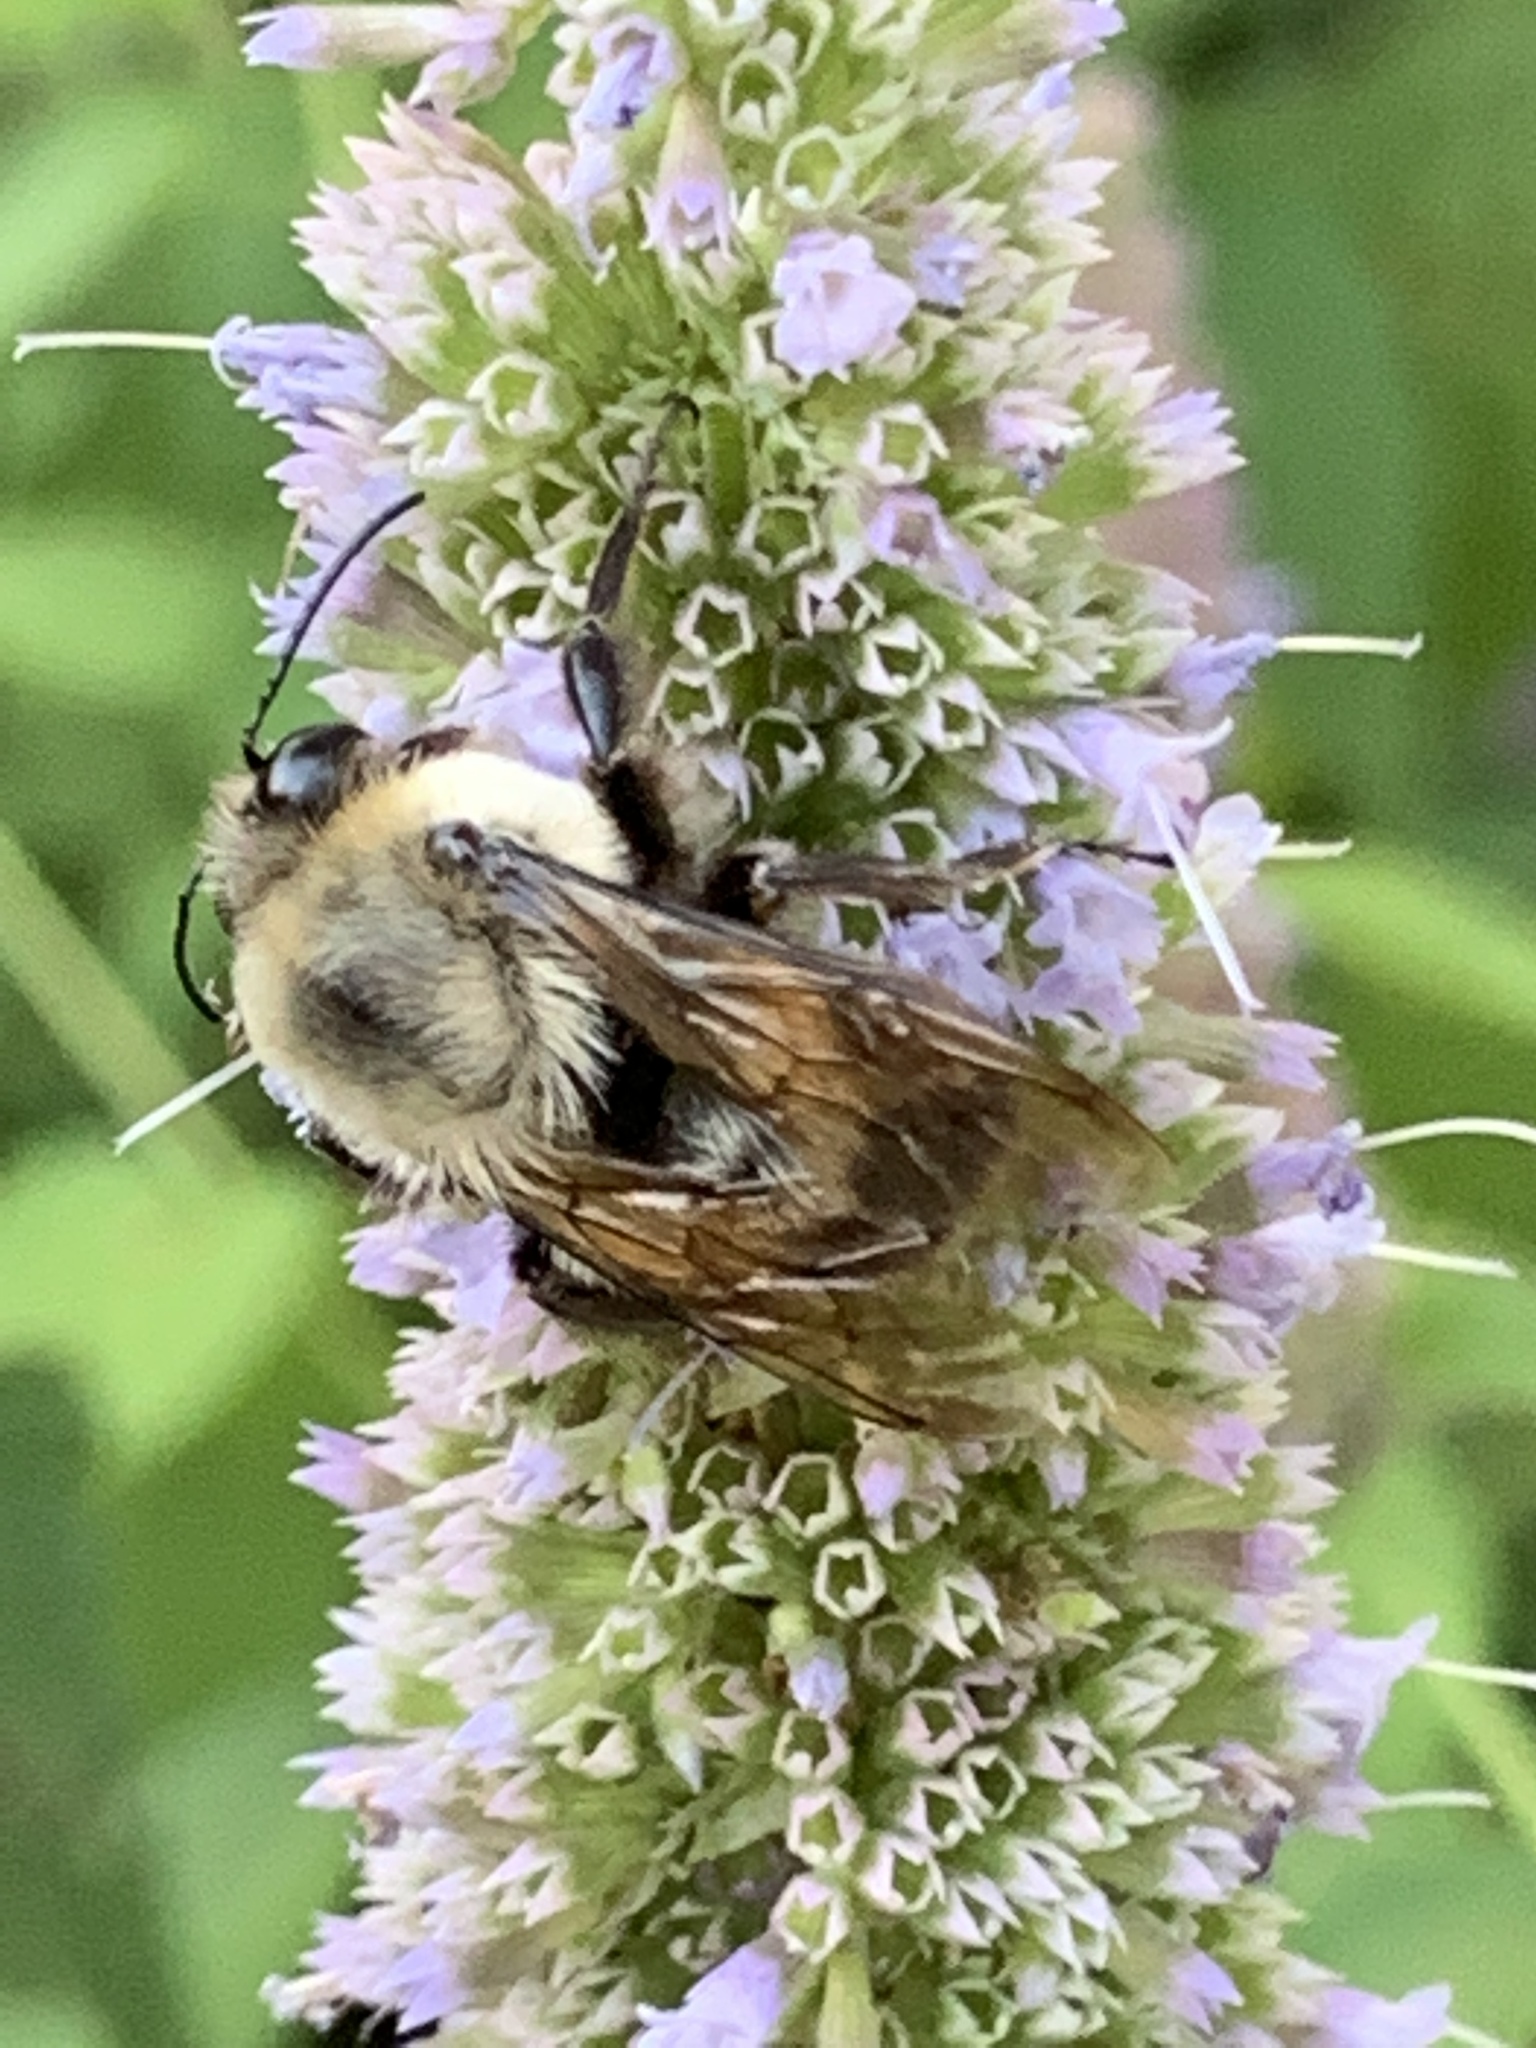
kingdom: Animalia
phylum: Arthropoda
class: Insecta
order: Hymenoptera
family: Apidae
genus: Bombus
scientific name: Bombus griseocollis
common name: Brown-belted bumble bee
